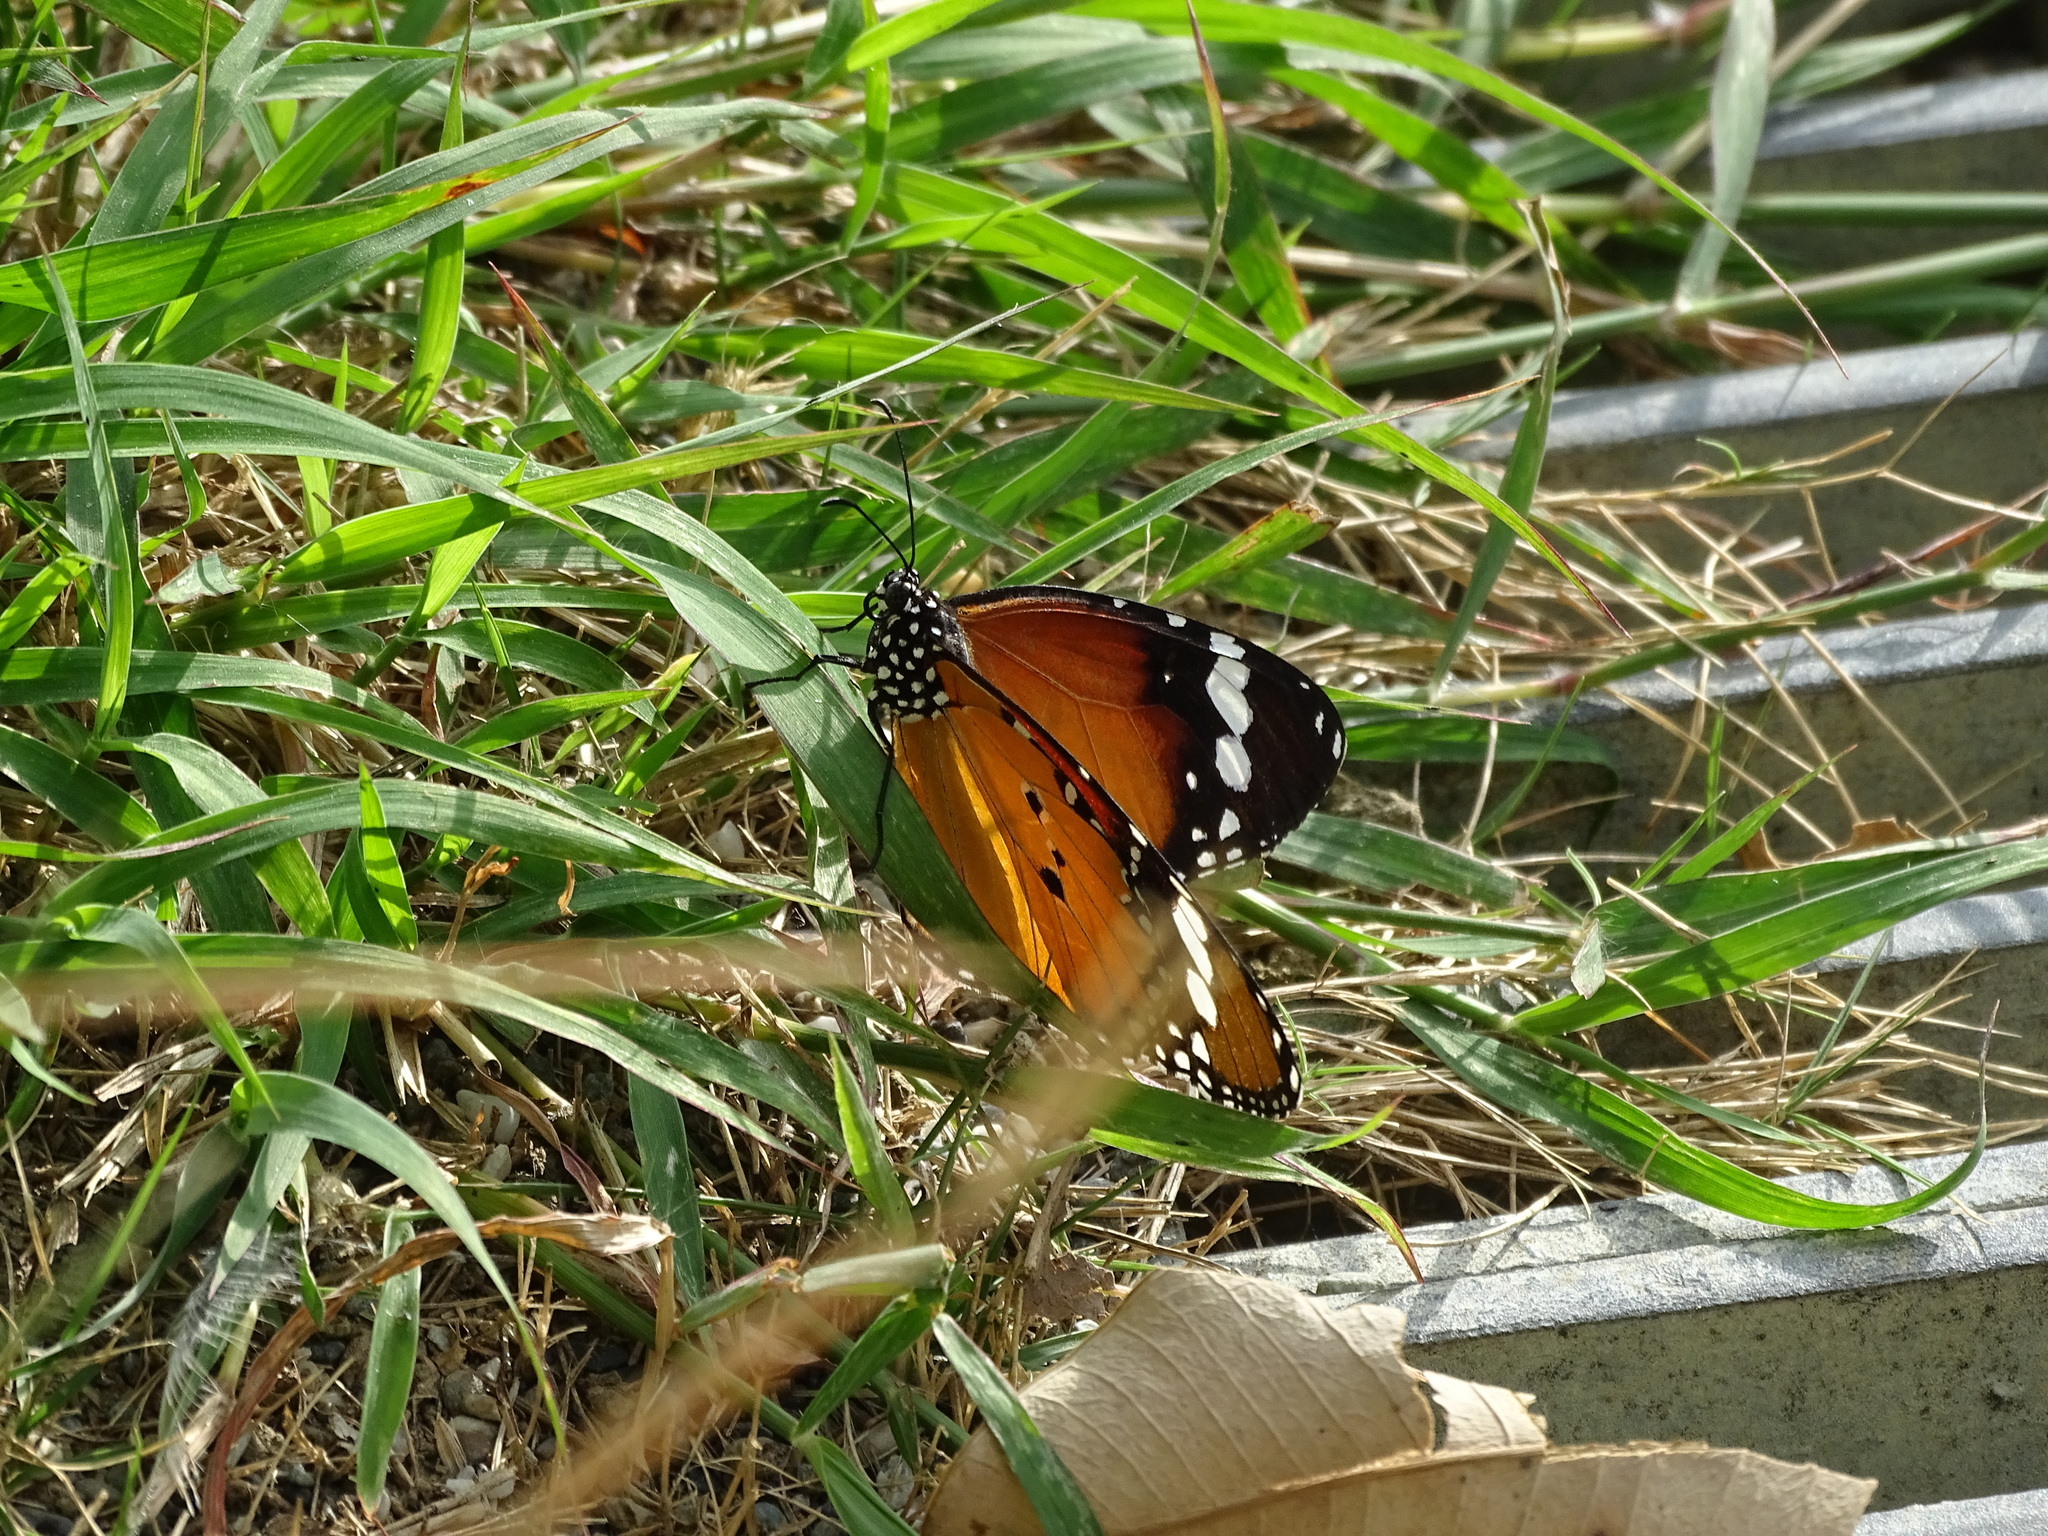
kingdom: Animalia
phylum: Arthropoda
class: Insecta
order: Lepidoptera
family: Nymphalidae
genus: Danaus
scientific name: Danaus chrysippus
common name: Plain tiger
